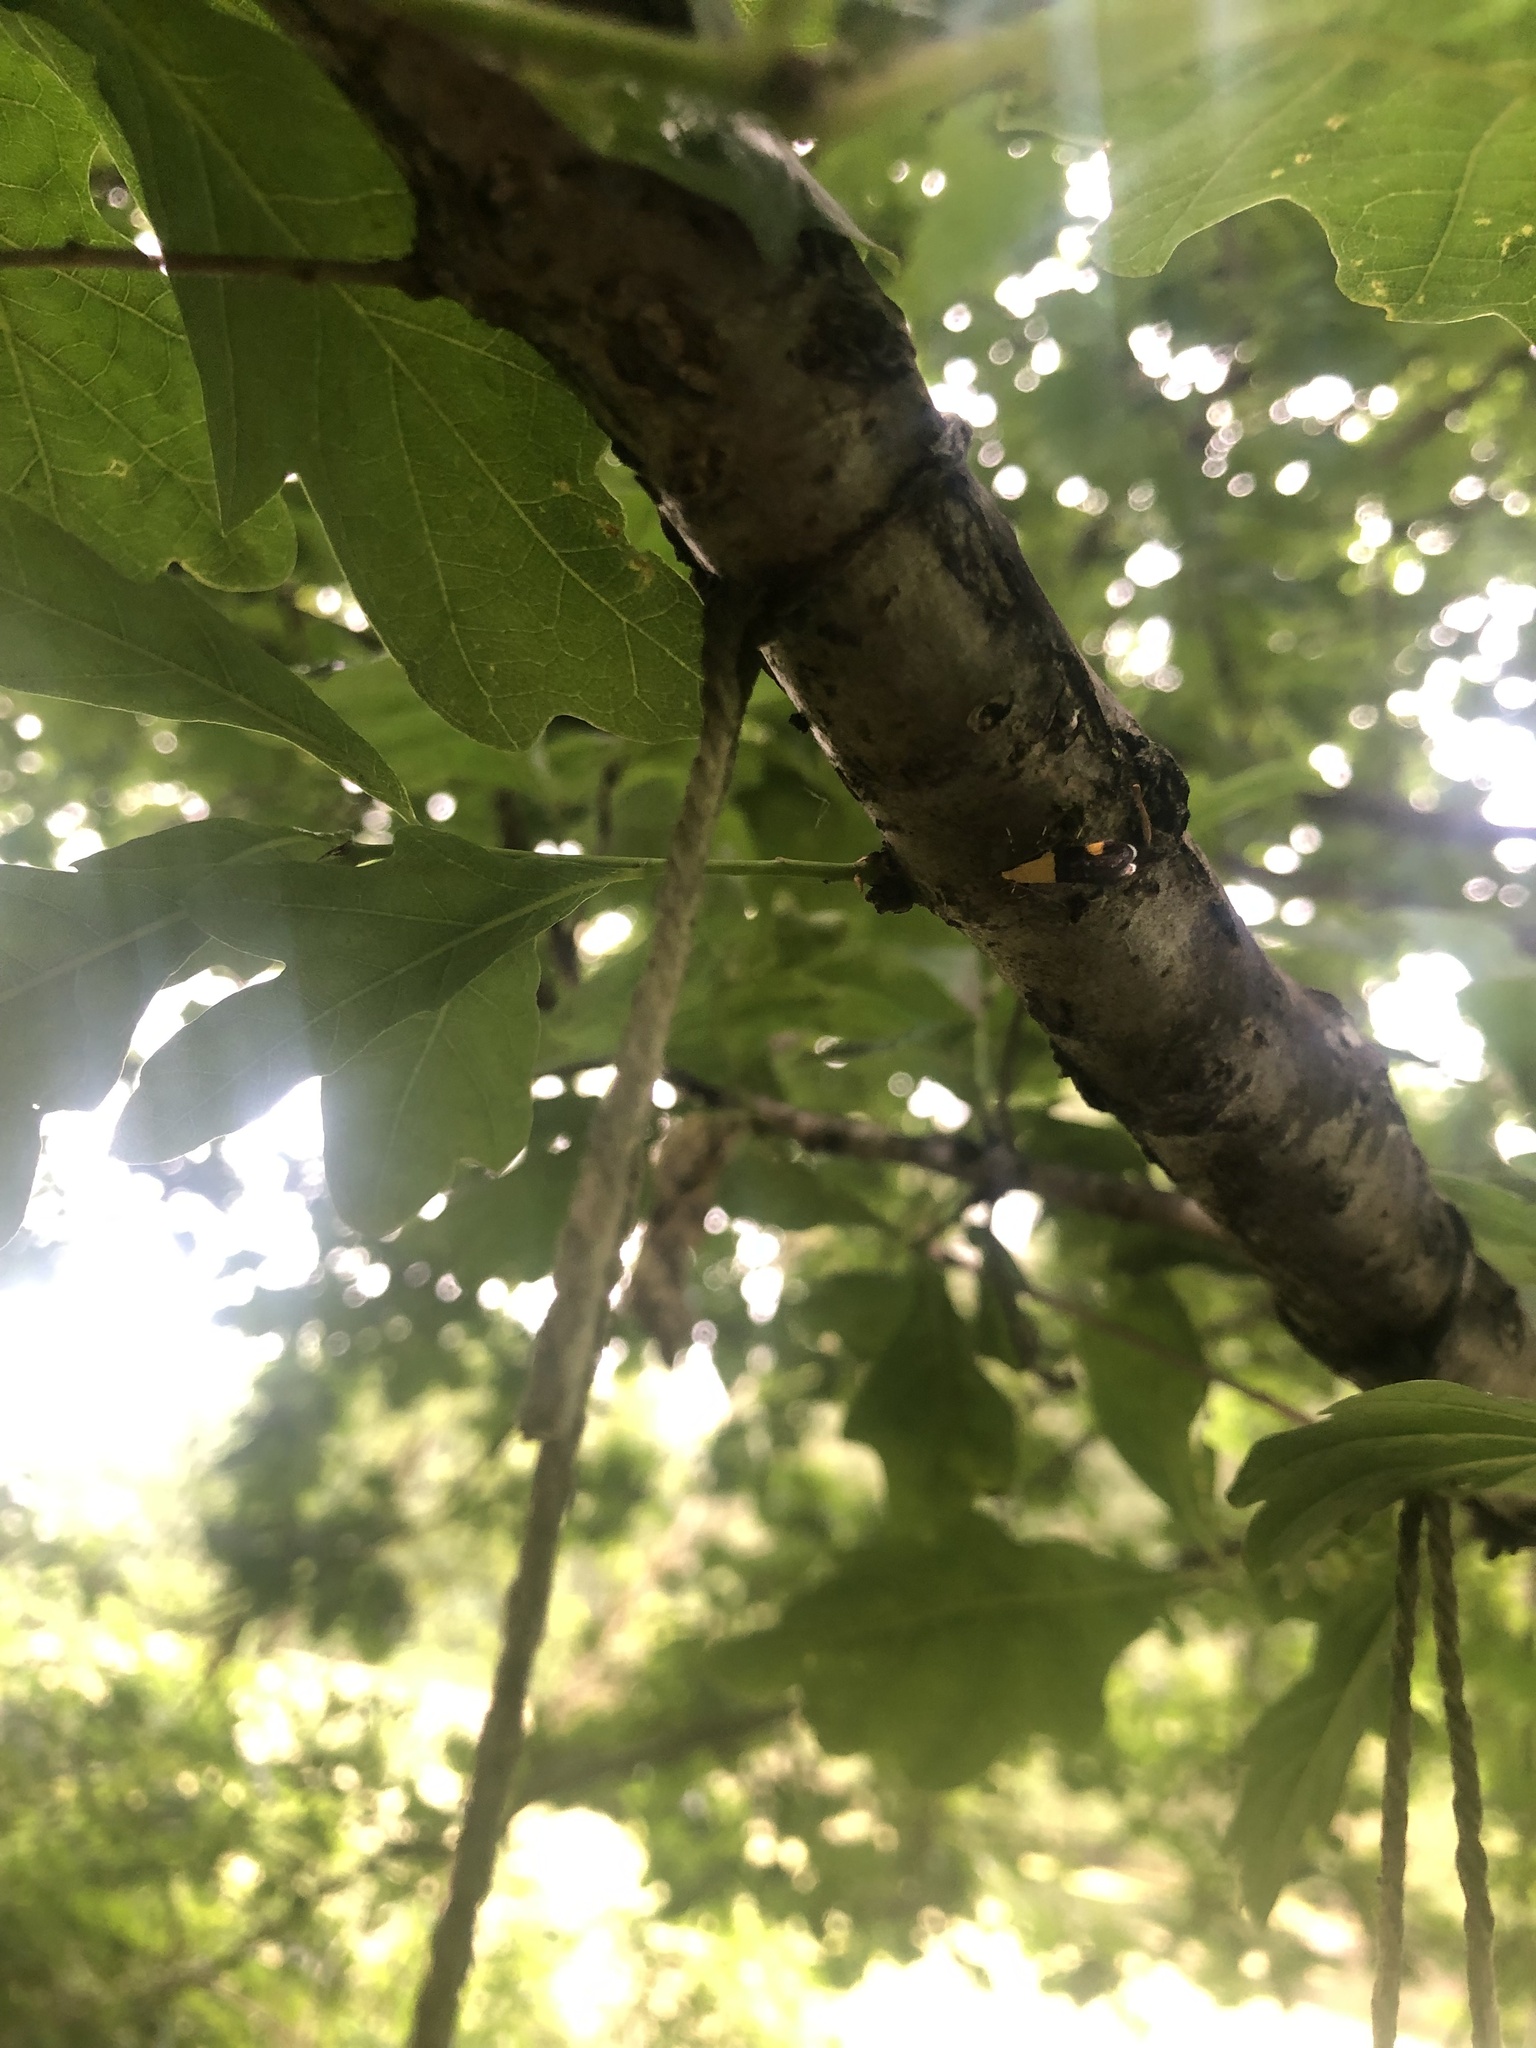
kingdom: Animalia
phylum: Arthropoda
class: Insecta
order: Lepidoptera
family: Oecophoridae
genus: Oecophora
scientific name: Oecophora bractella
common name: Gold-base tubic
